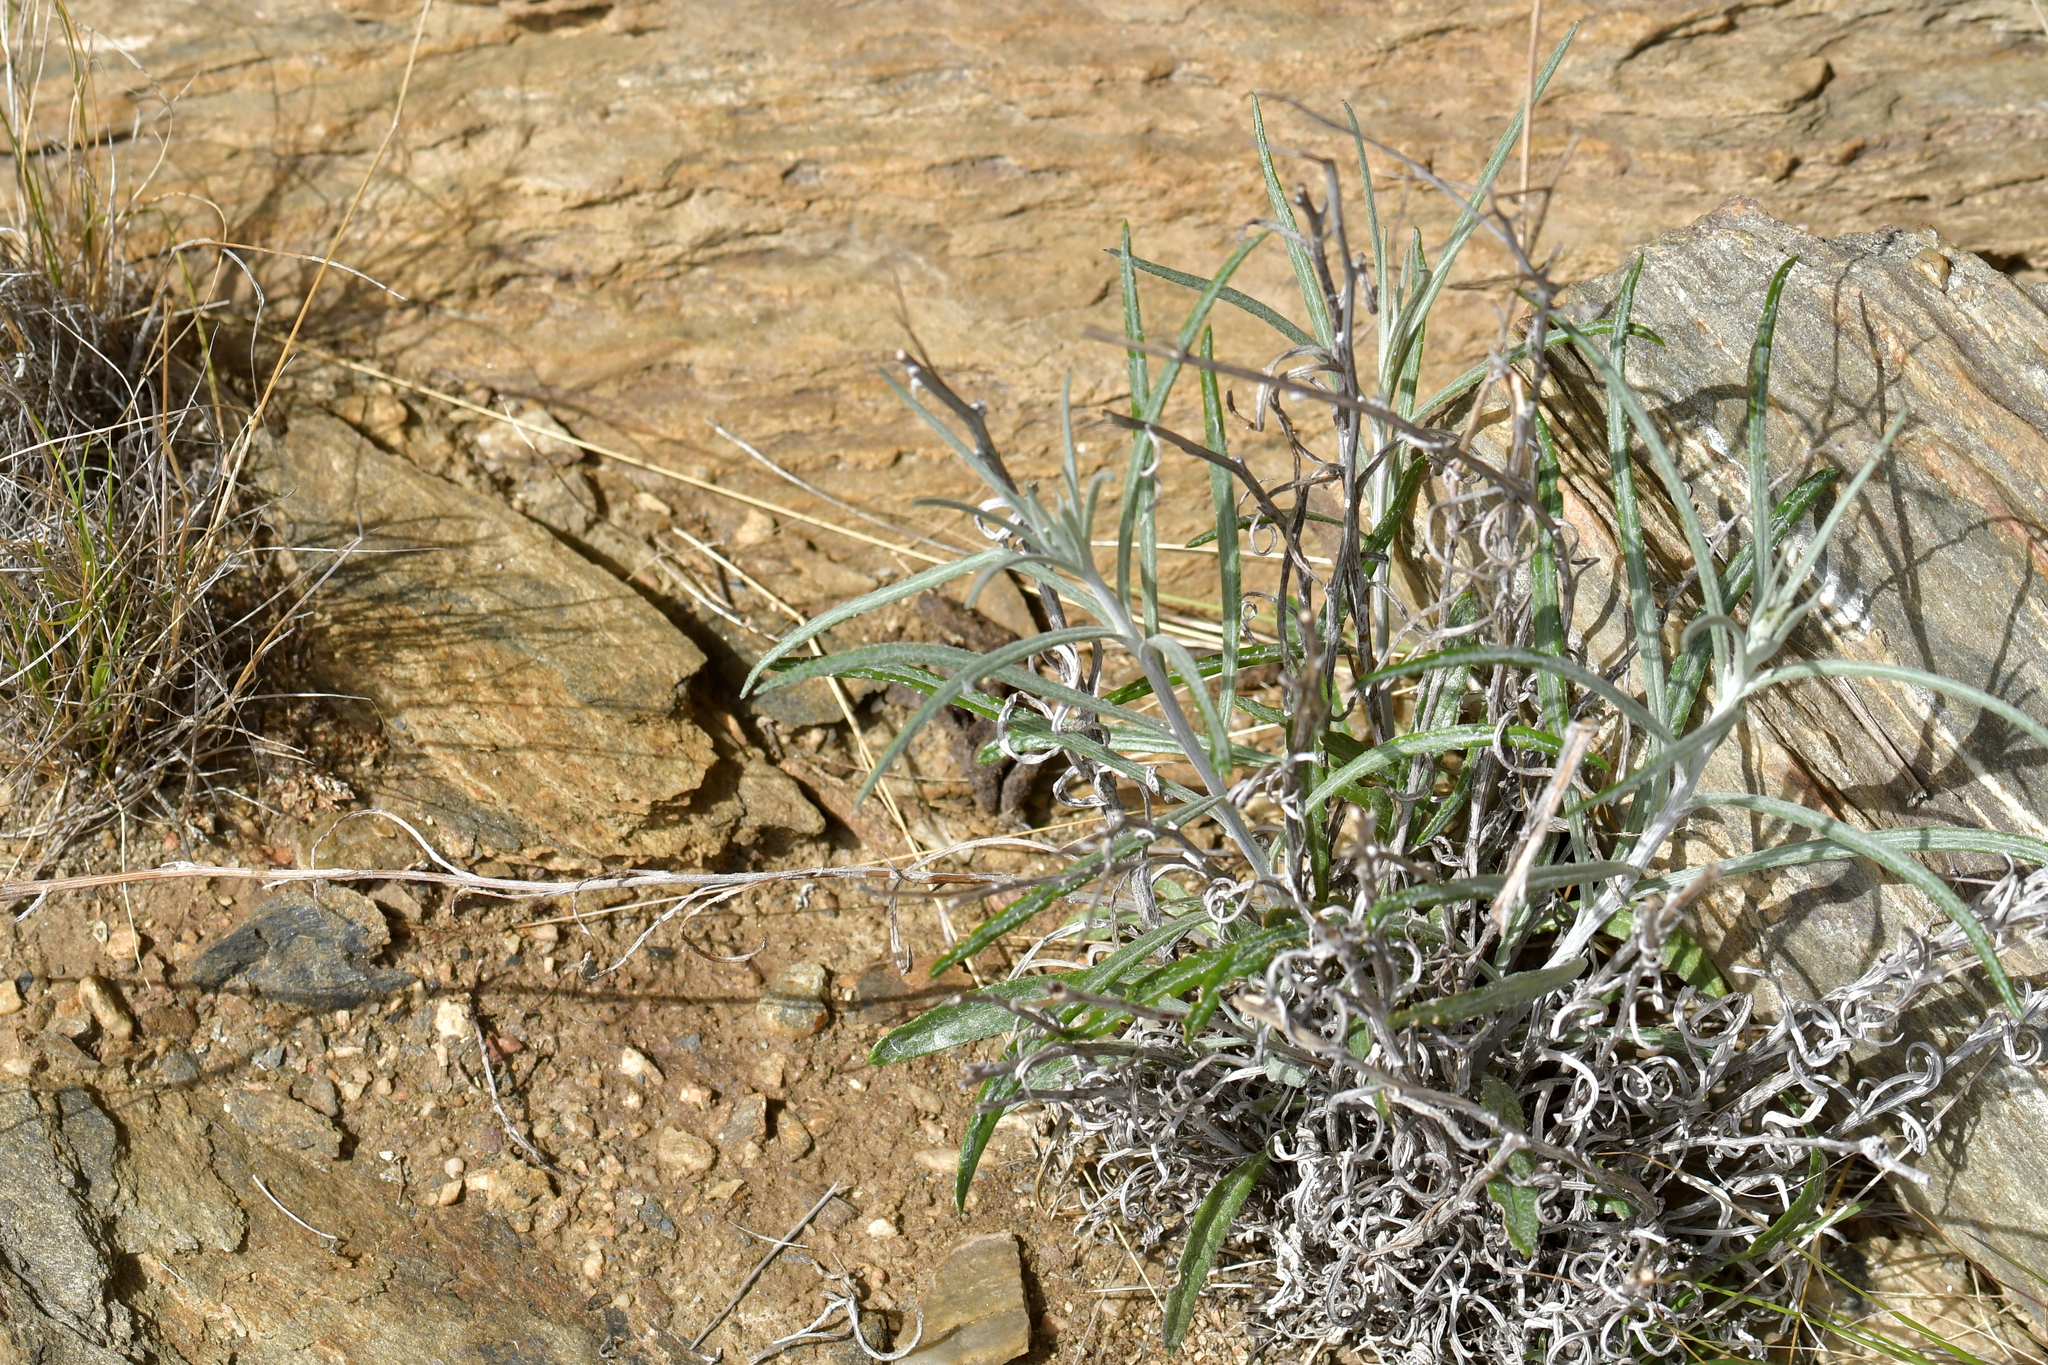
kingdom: Plantae
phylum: Tracheophyta
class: Magnoliopsida
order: Asterales
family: Asteraceae
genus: Senecio
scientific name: Senecio quadridentatus
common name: Cotton fireweed
